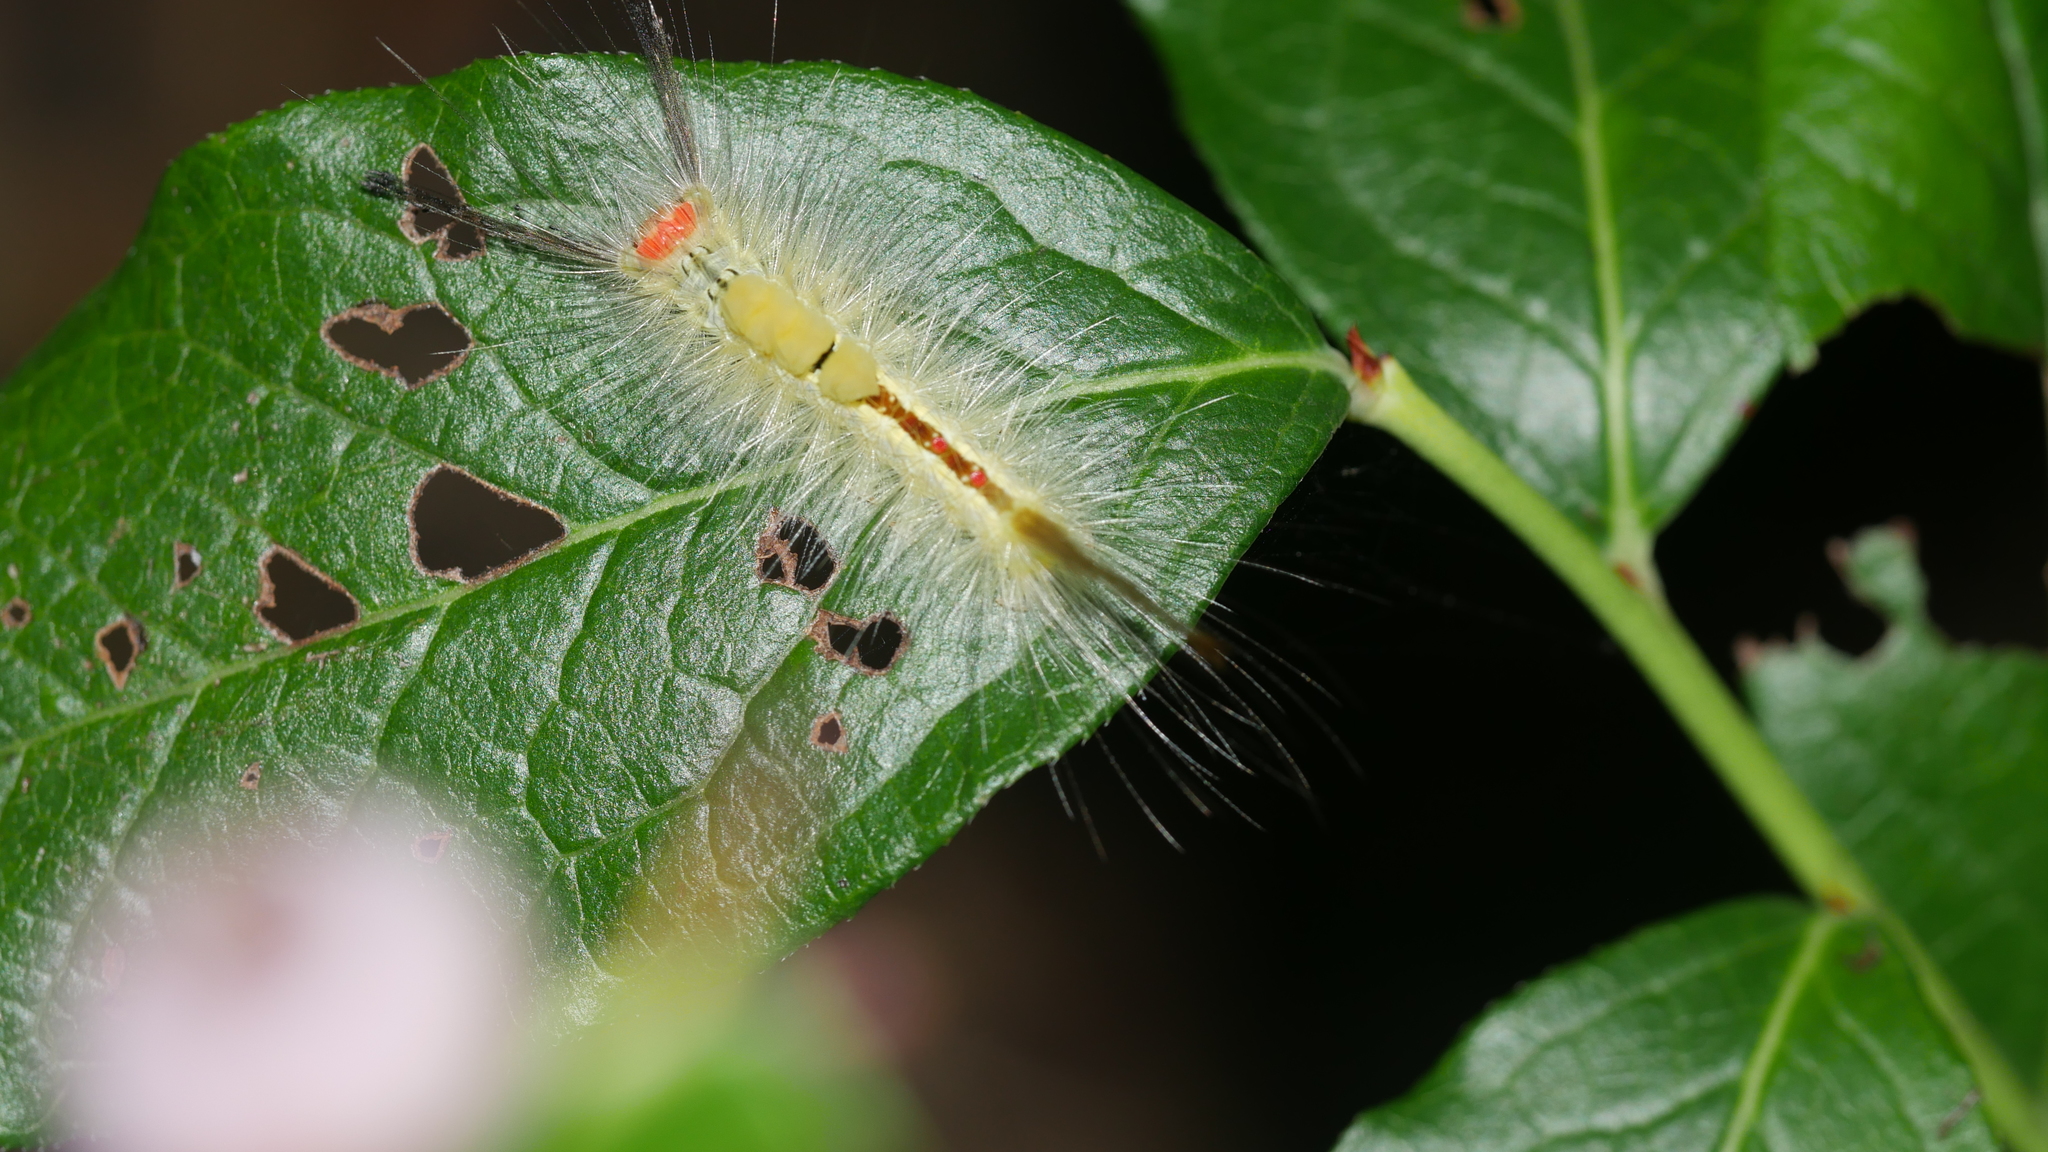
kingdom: Animalia
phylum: Arthropoda
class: Insecta
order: Lepidoptera
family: Erebidae
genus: Orgyia
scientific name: Orgyia leucostigma
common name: White-marked tussock moth
